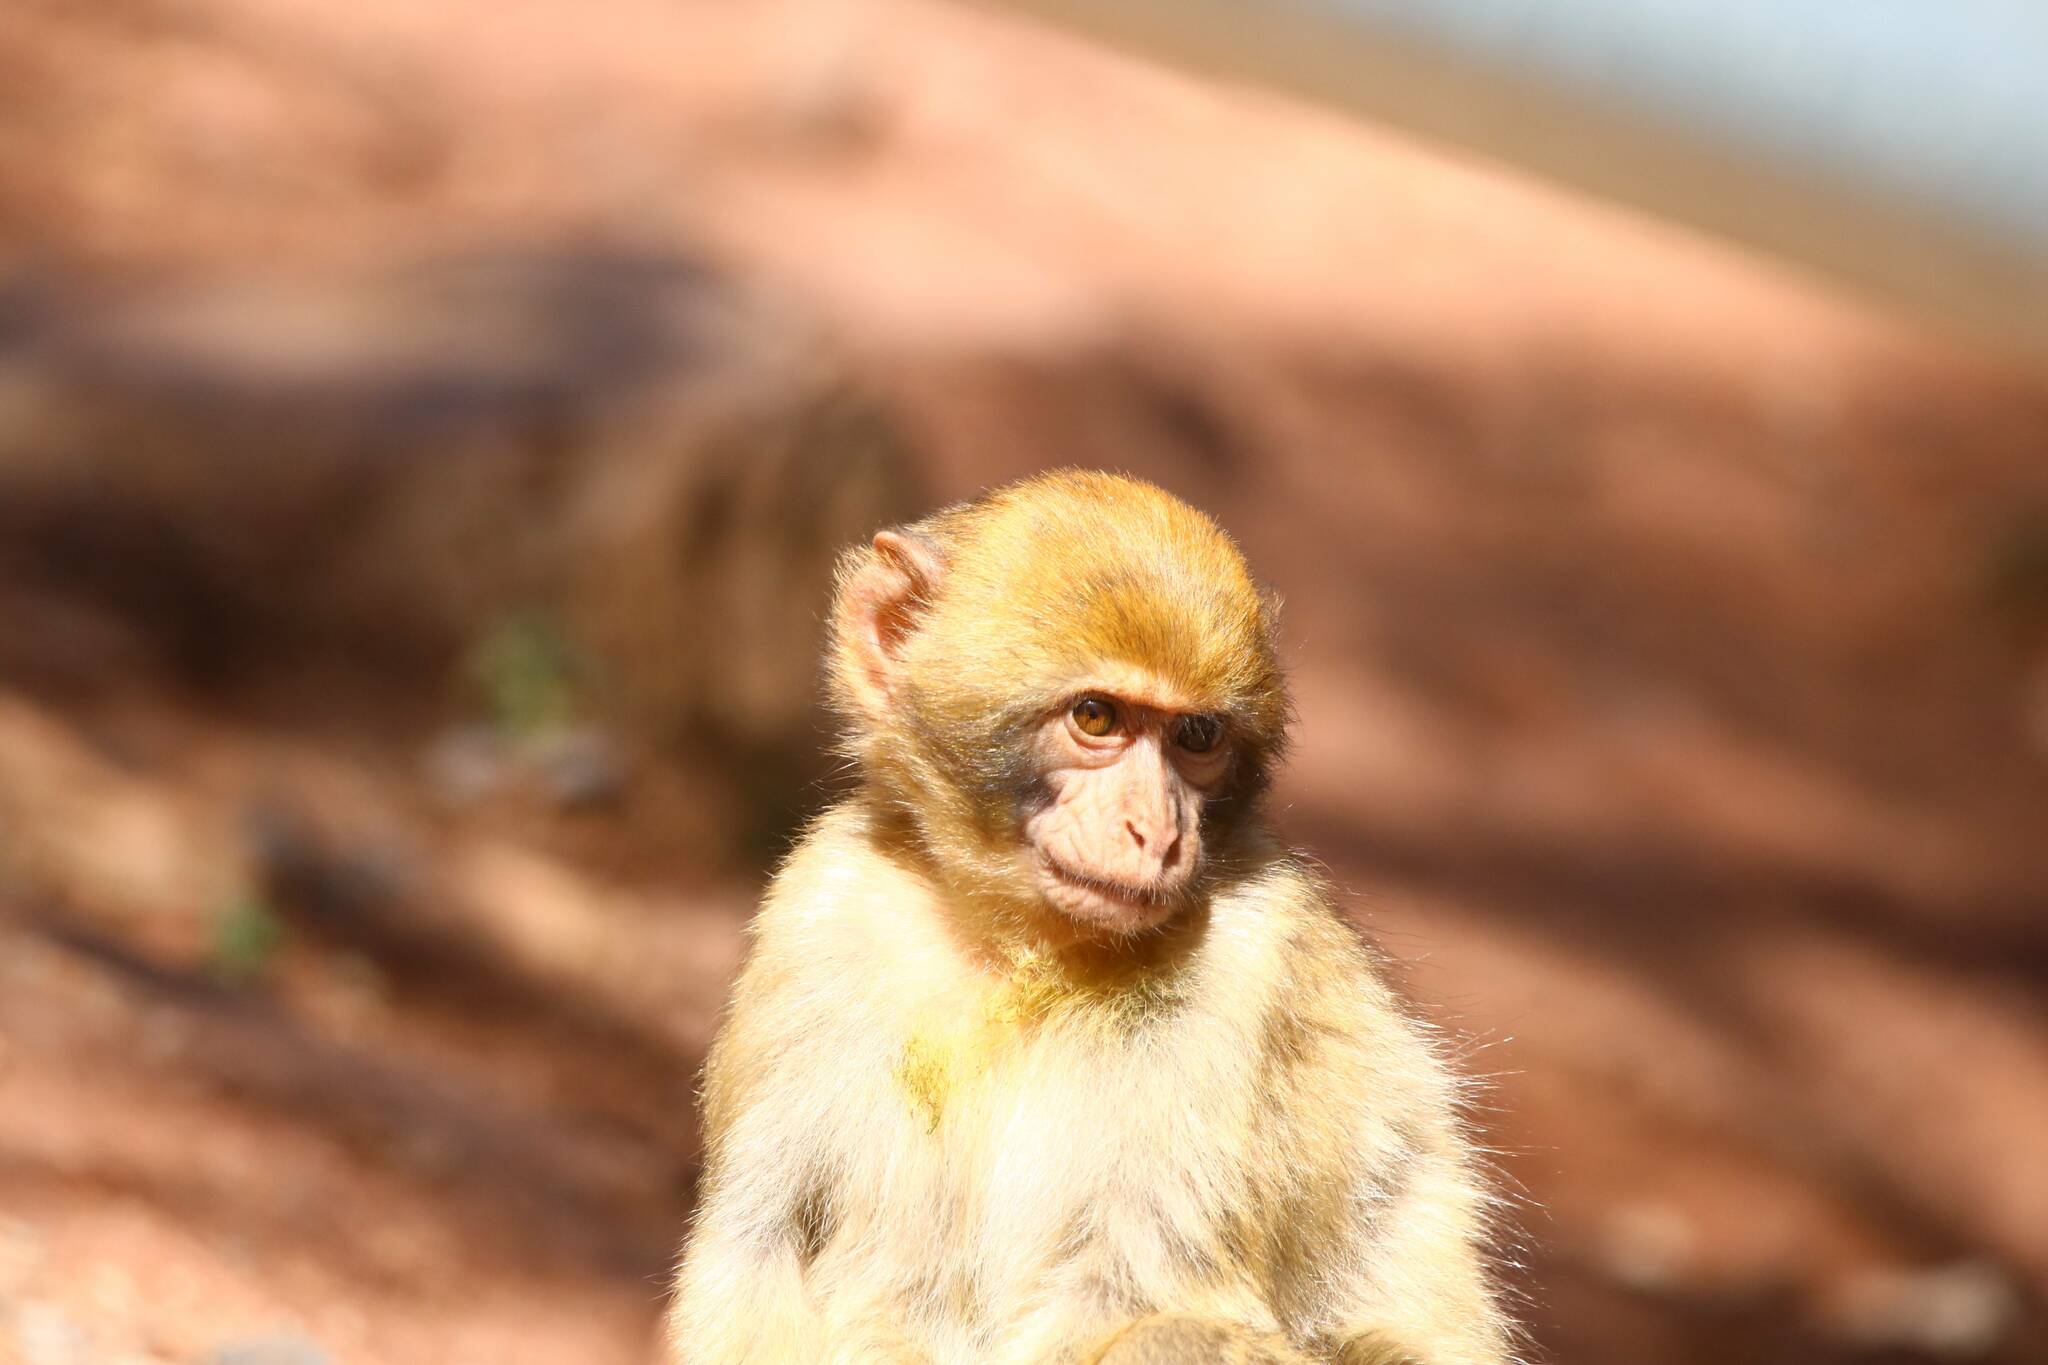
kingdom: Animalia
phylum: Chordata
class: Mammalia
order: Primates
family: Cercopithecidae
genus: Macaca
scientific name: Macaca sylvanus
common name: Barbary macaque
